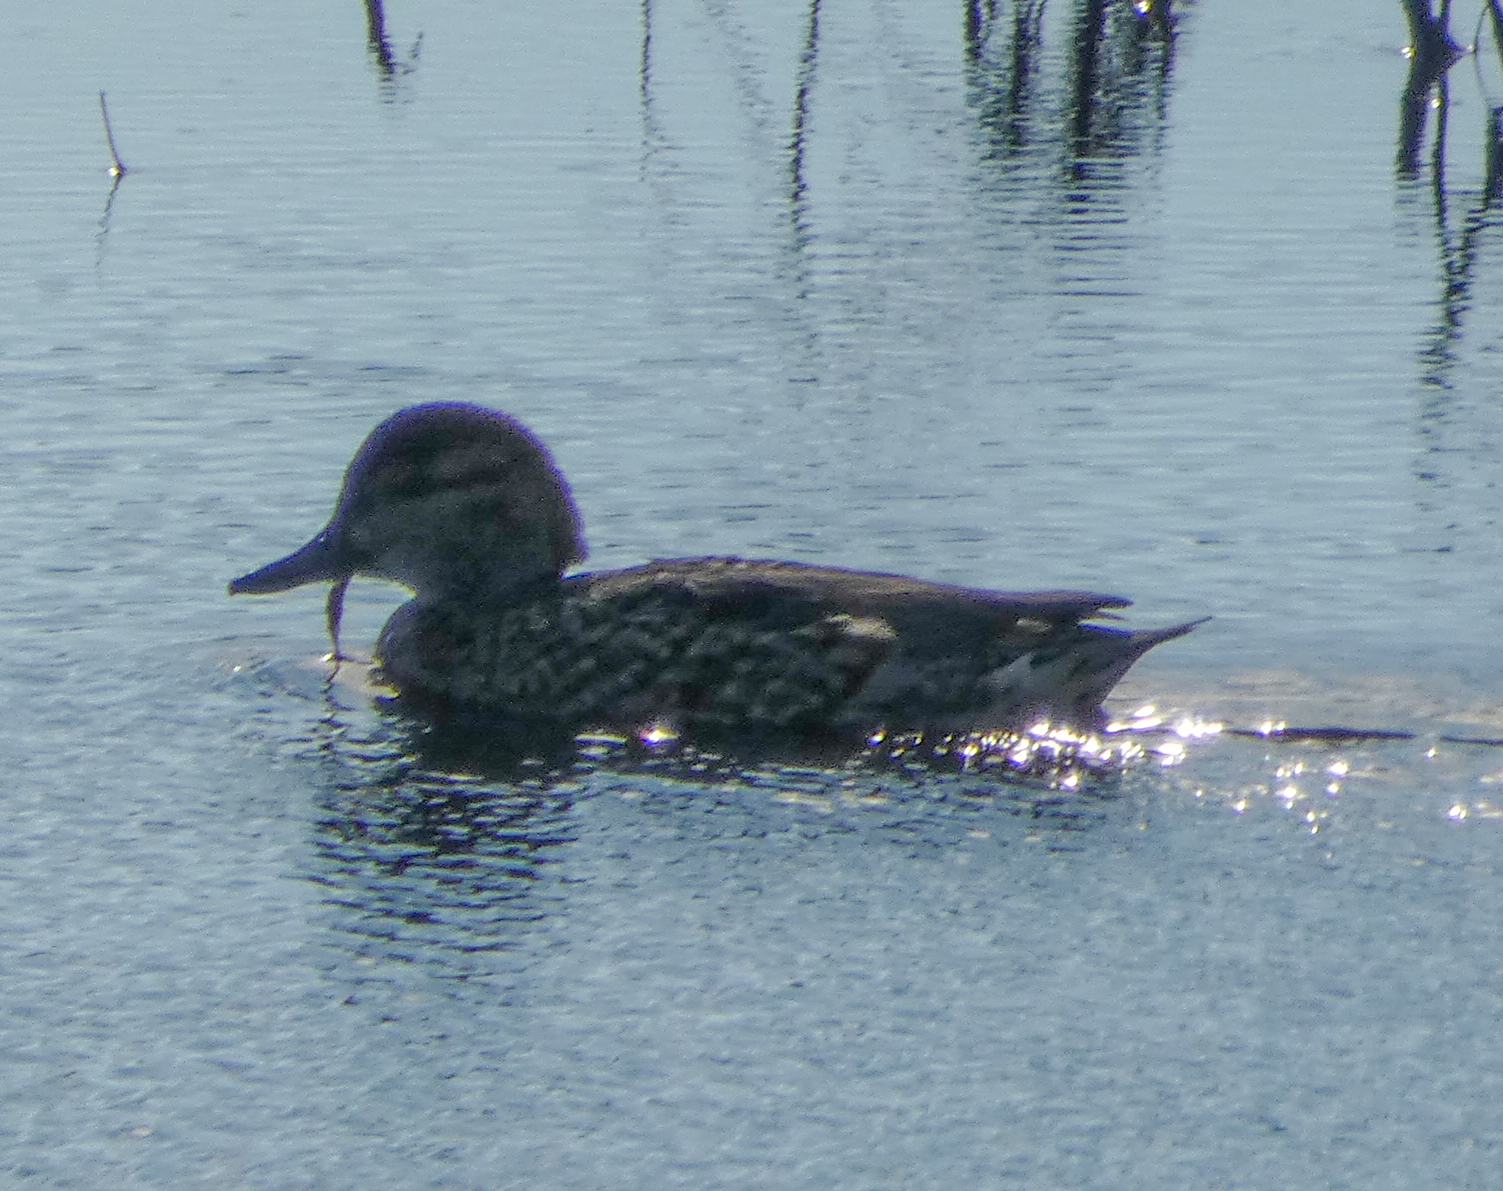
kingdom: Animalia
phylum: Chordata
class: Aves
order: Anseriformes
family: Anatidae
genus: Anas
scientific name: Anas crecca
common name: Eurasian teal
